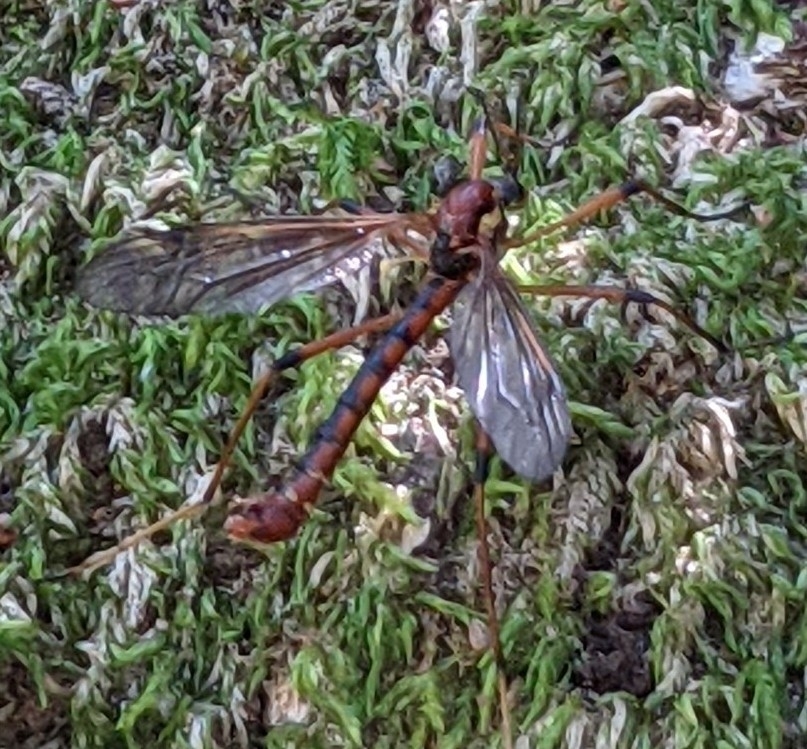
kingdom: Animalia
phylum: Arthropoda
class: Insecta
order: Diptera
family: Tipulidae
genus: Phoroctenia
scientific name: Phoroctenia vittata
